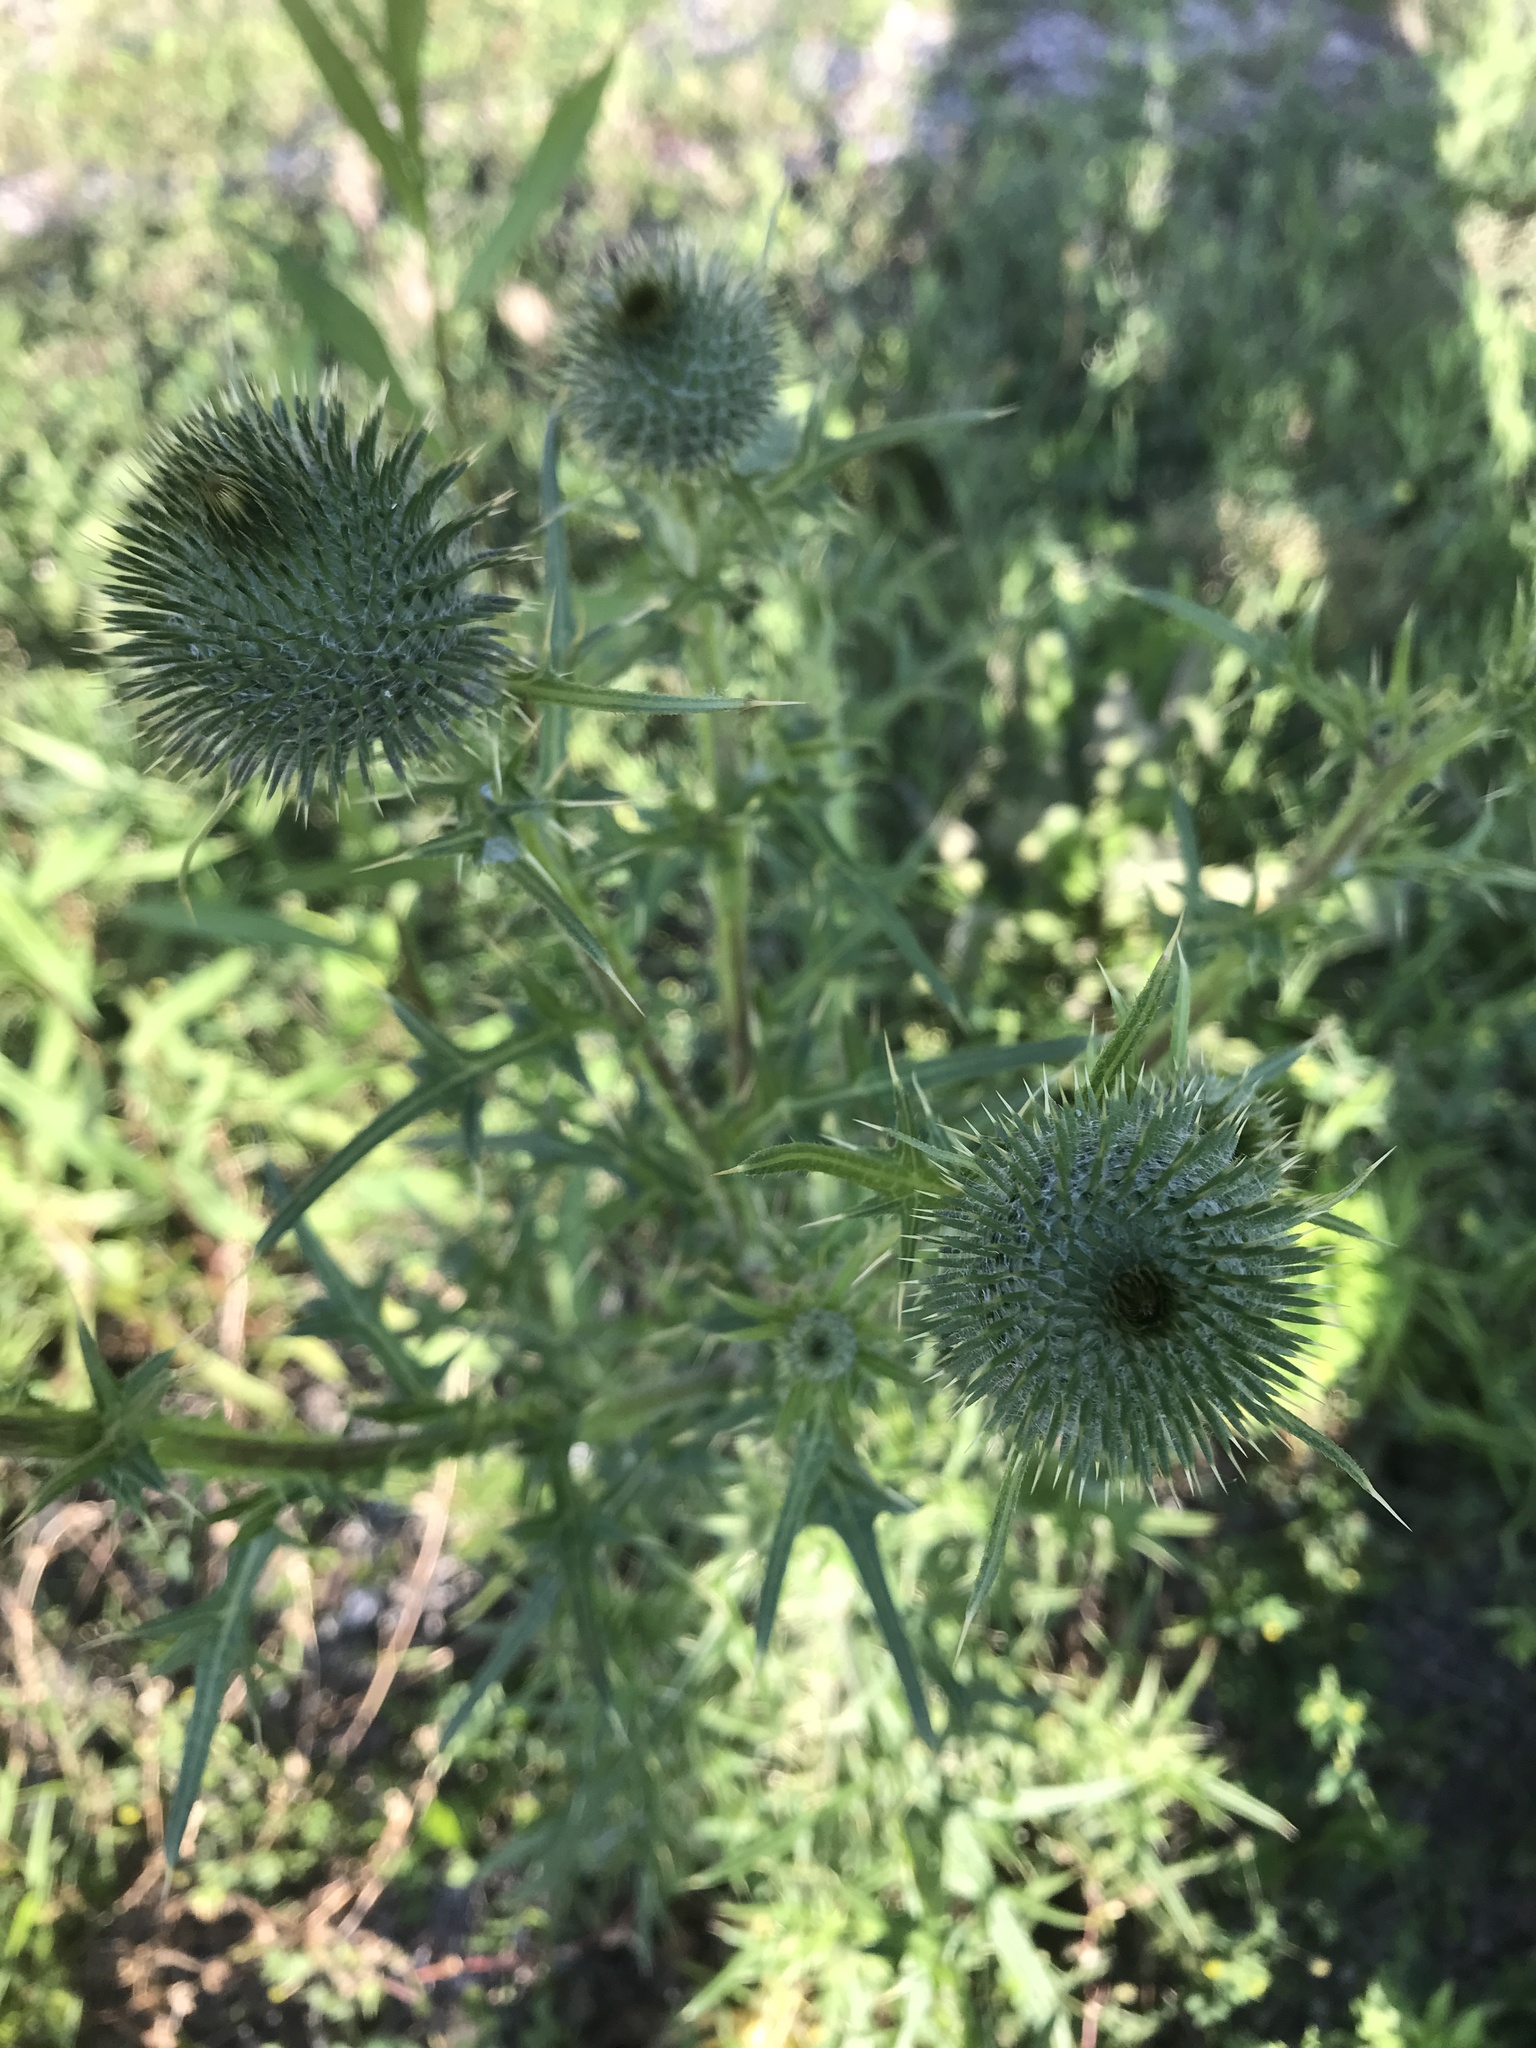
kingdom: Plantae
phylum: Tracheophyta
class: Magnoliopsida
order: Asterales
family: Asteraceae
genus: Cirsium
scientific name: Cirsium vulgare
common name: Bull thistle
